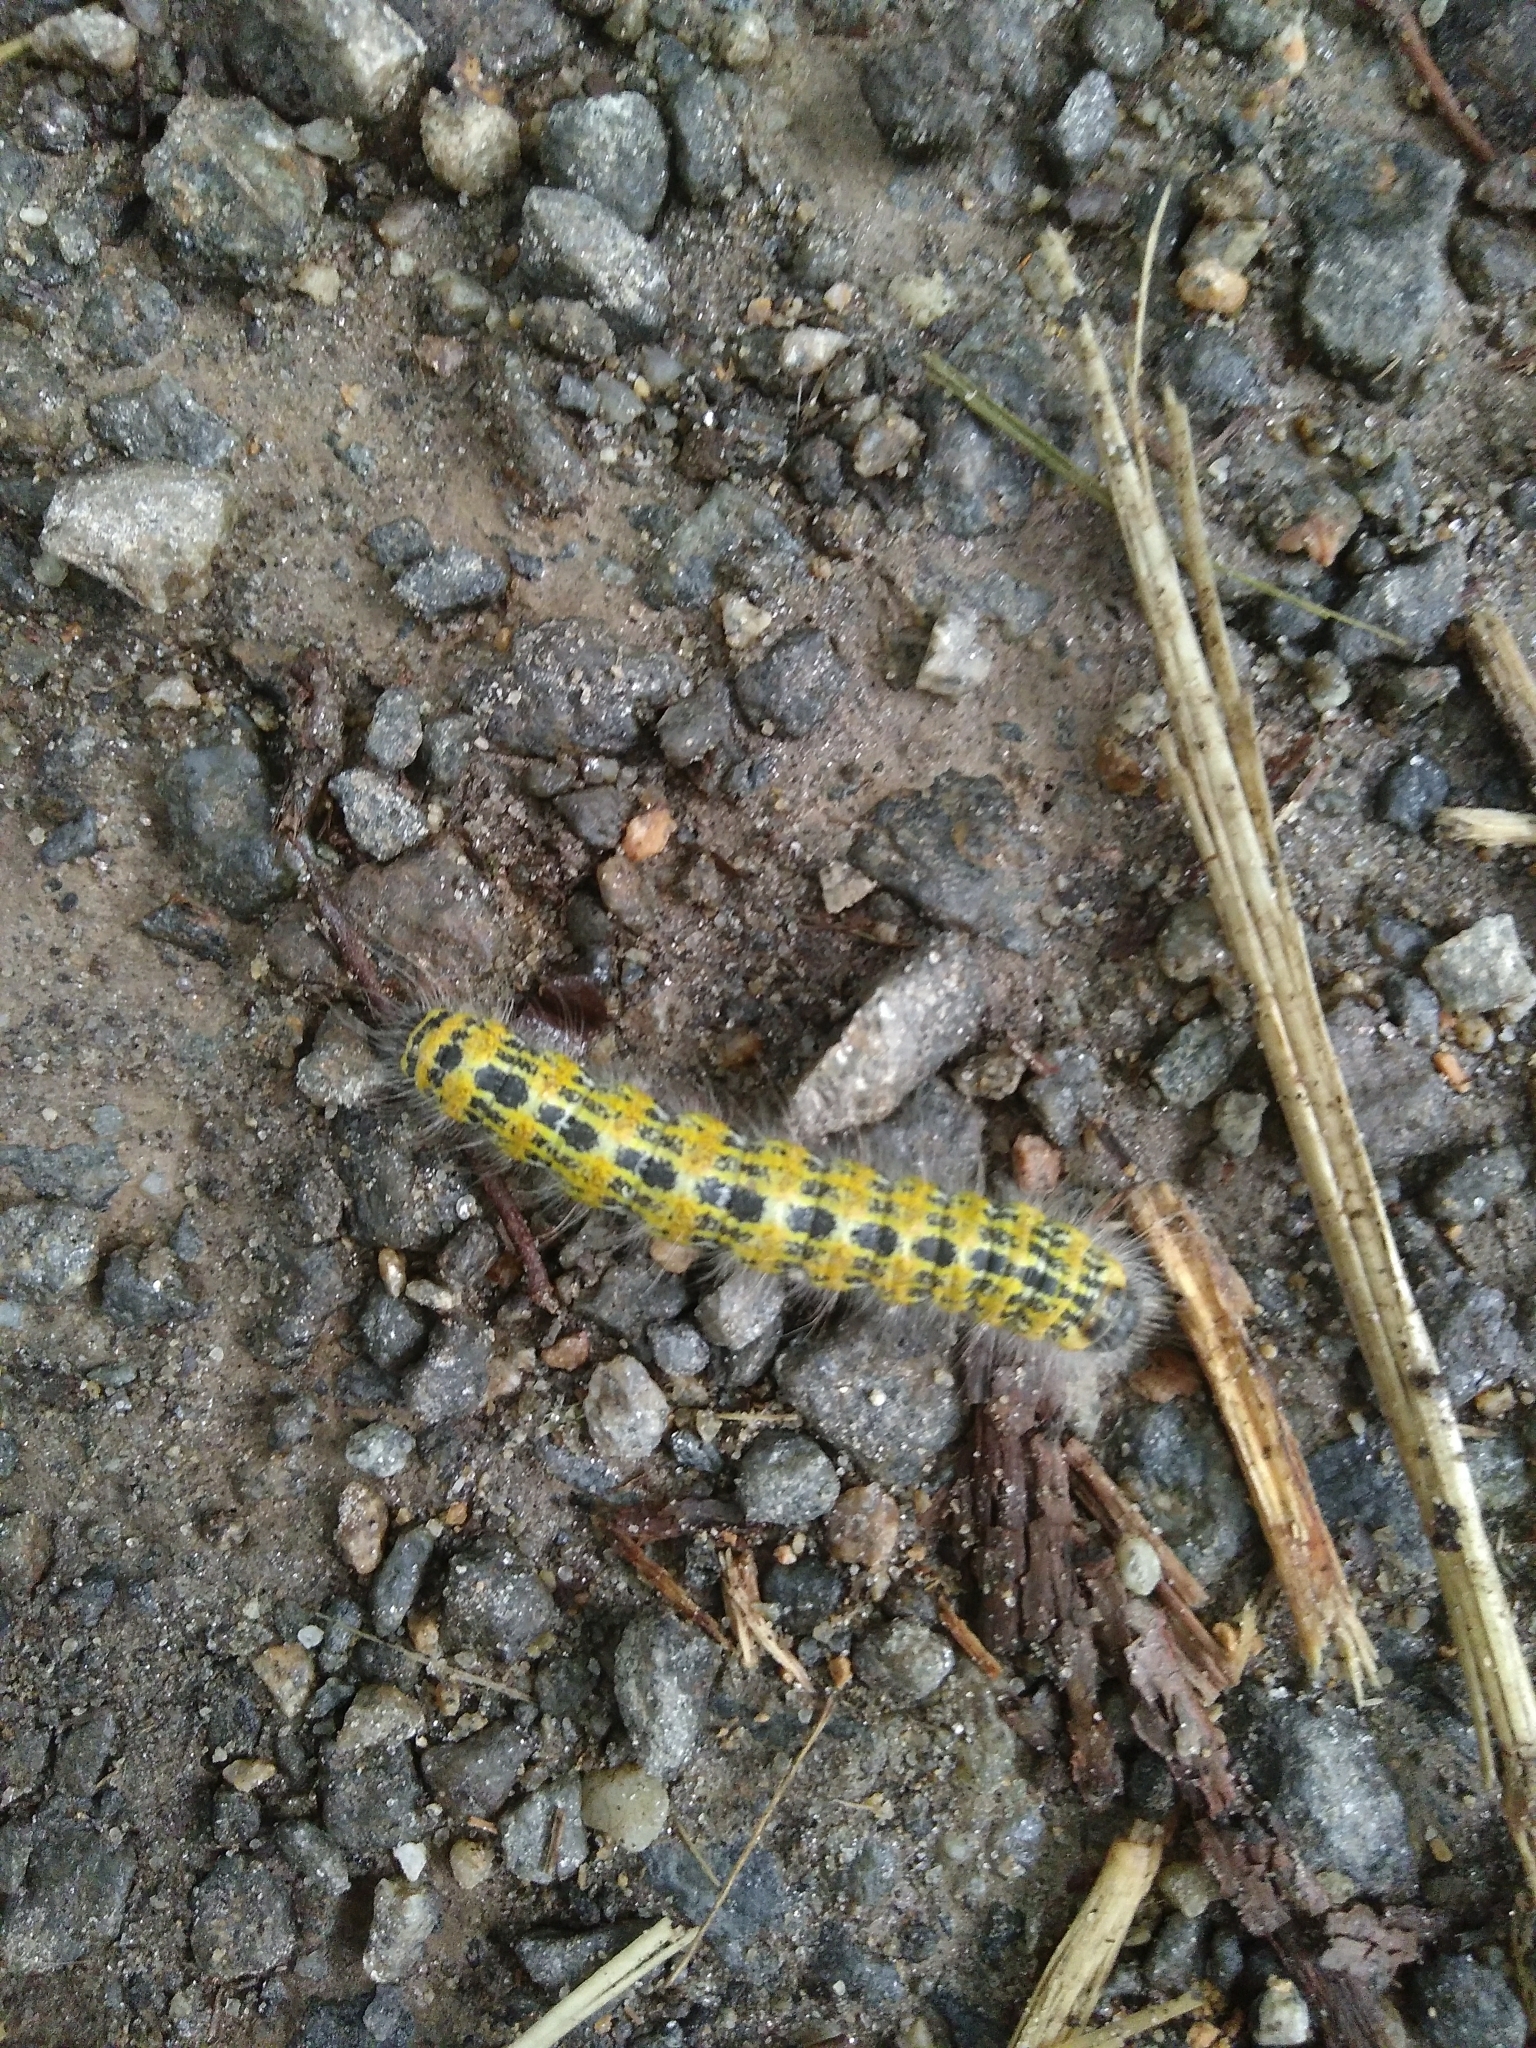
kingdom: Animalia
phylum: Arthropoda
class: Insecta
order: Lepidoptera
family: Notodontidae
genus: Phalera
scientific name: Phalera bucephala
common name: Buff-tip
